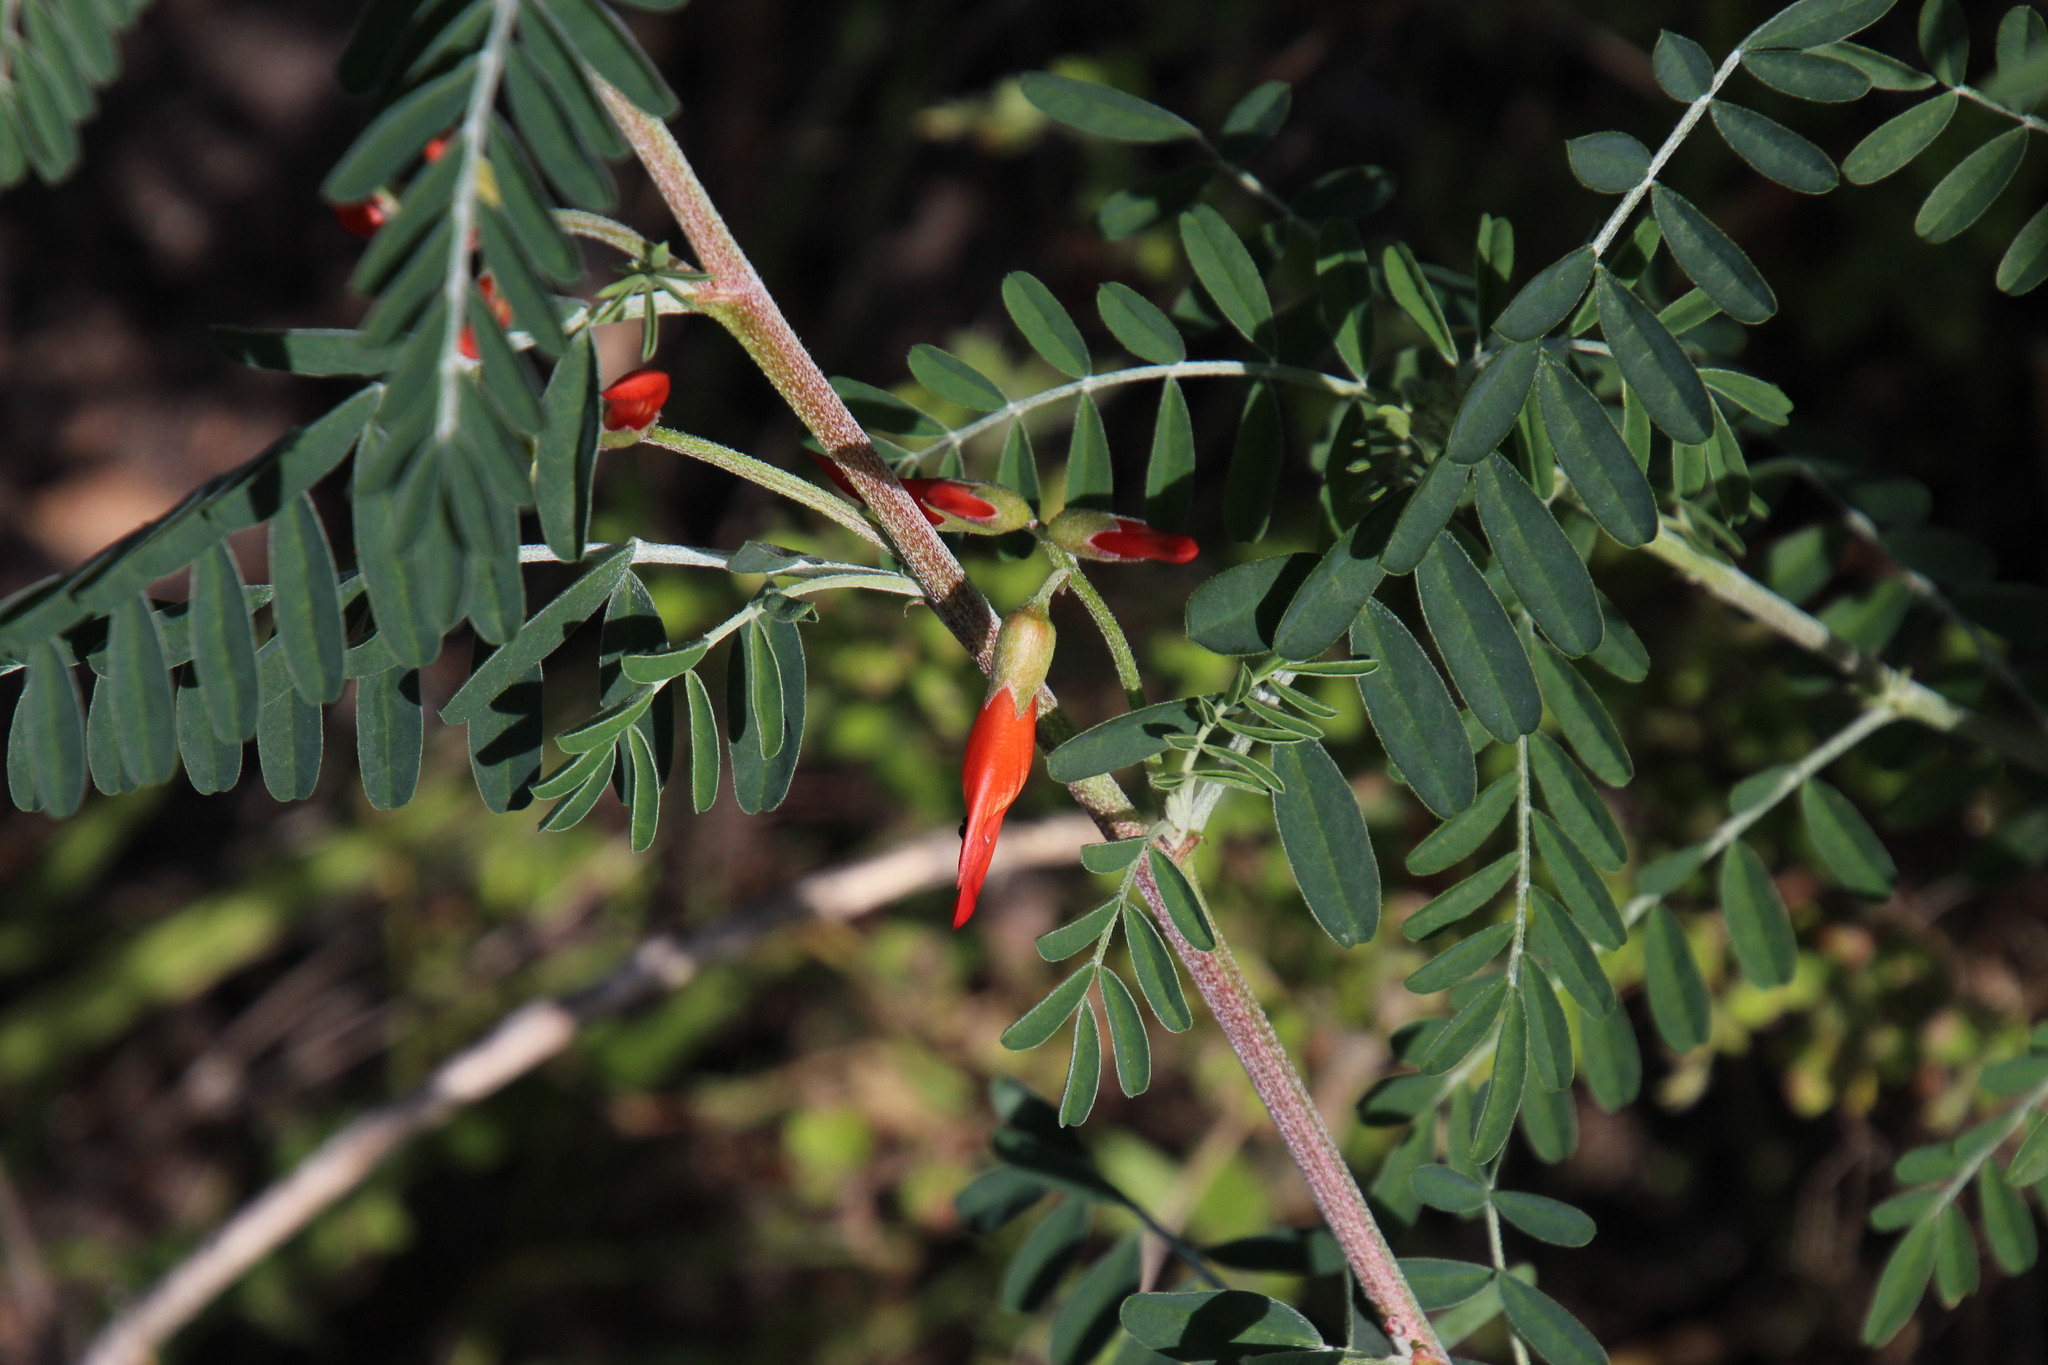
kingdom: Plantae
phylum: Tracheophyta
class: Magnoliopsida
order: Fabales
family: Fabaceae
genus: Lessertia
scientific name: Lessertia frutescens
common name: Balloon-pea
